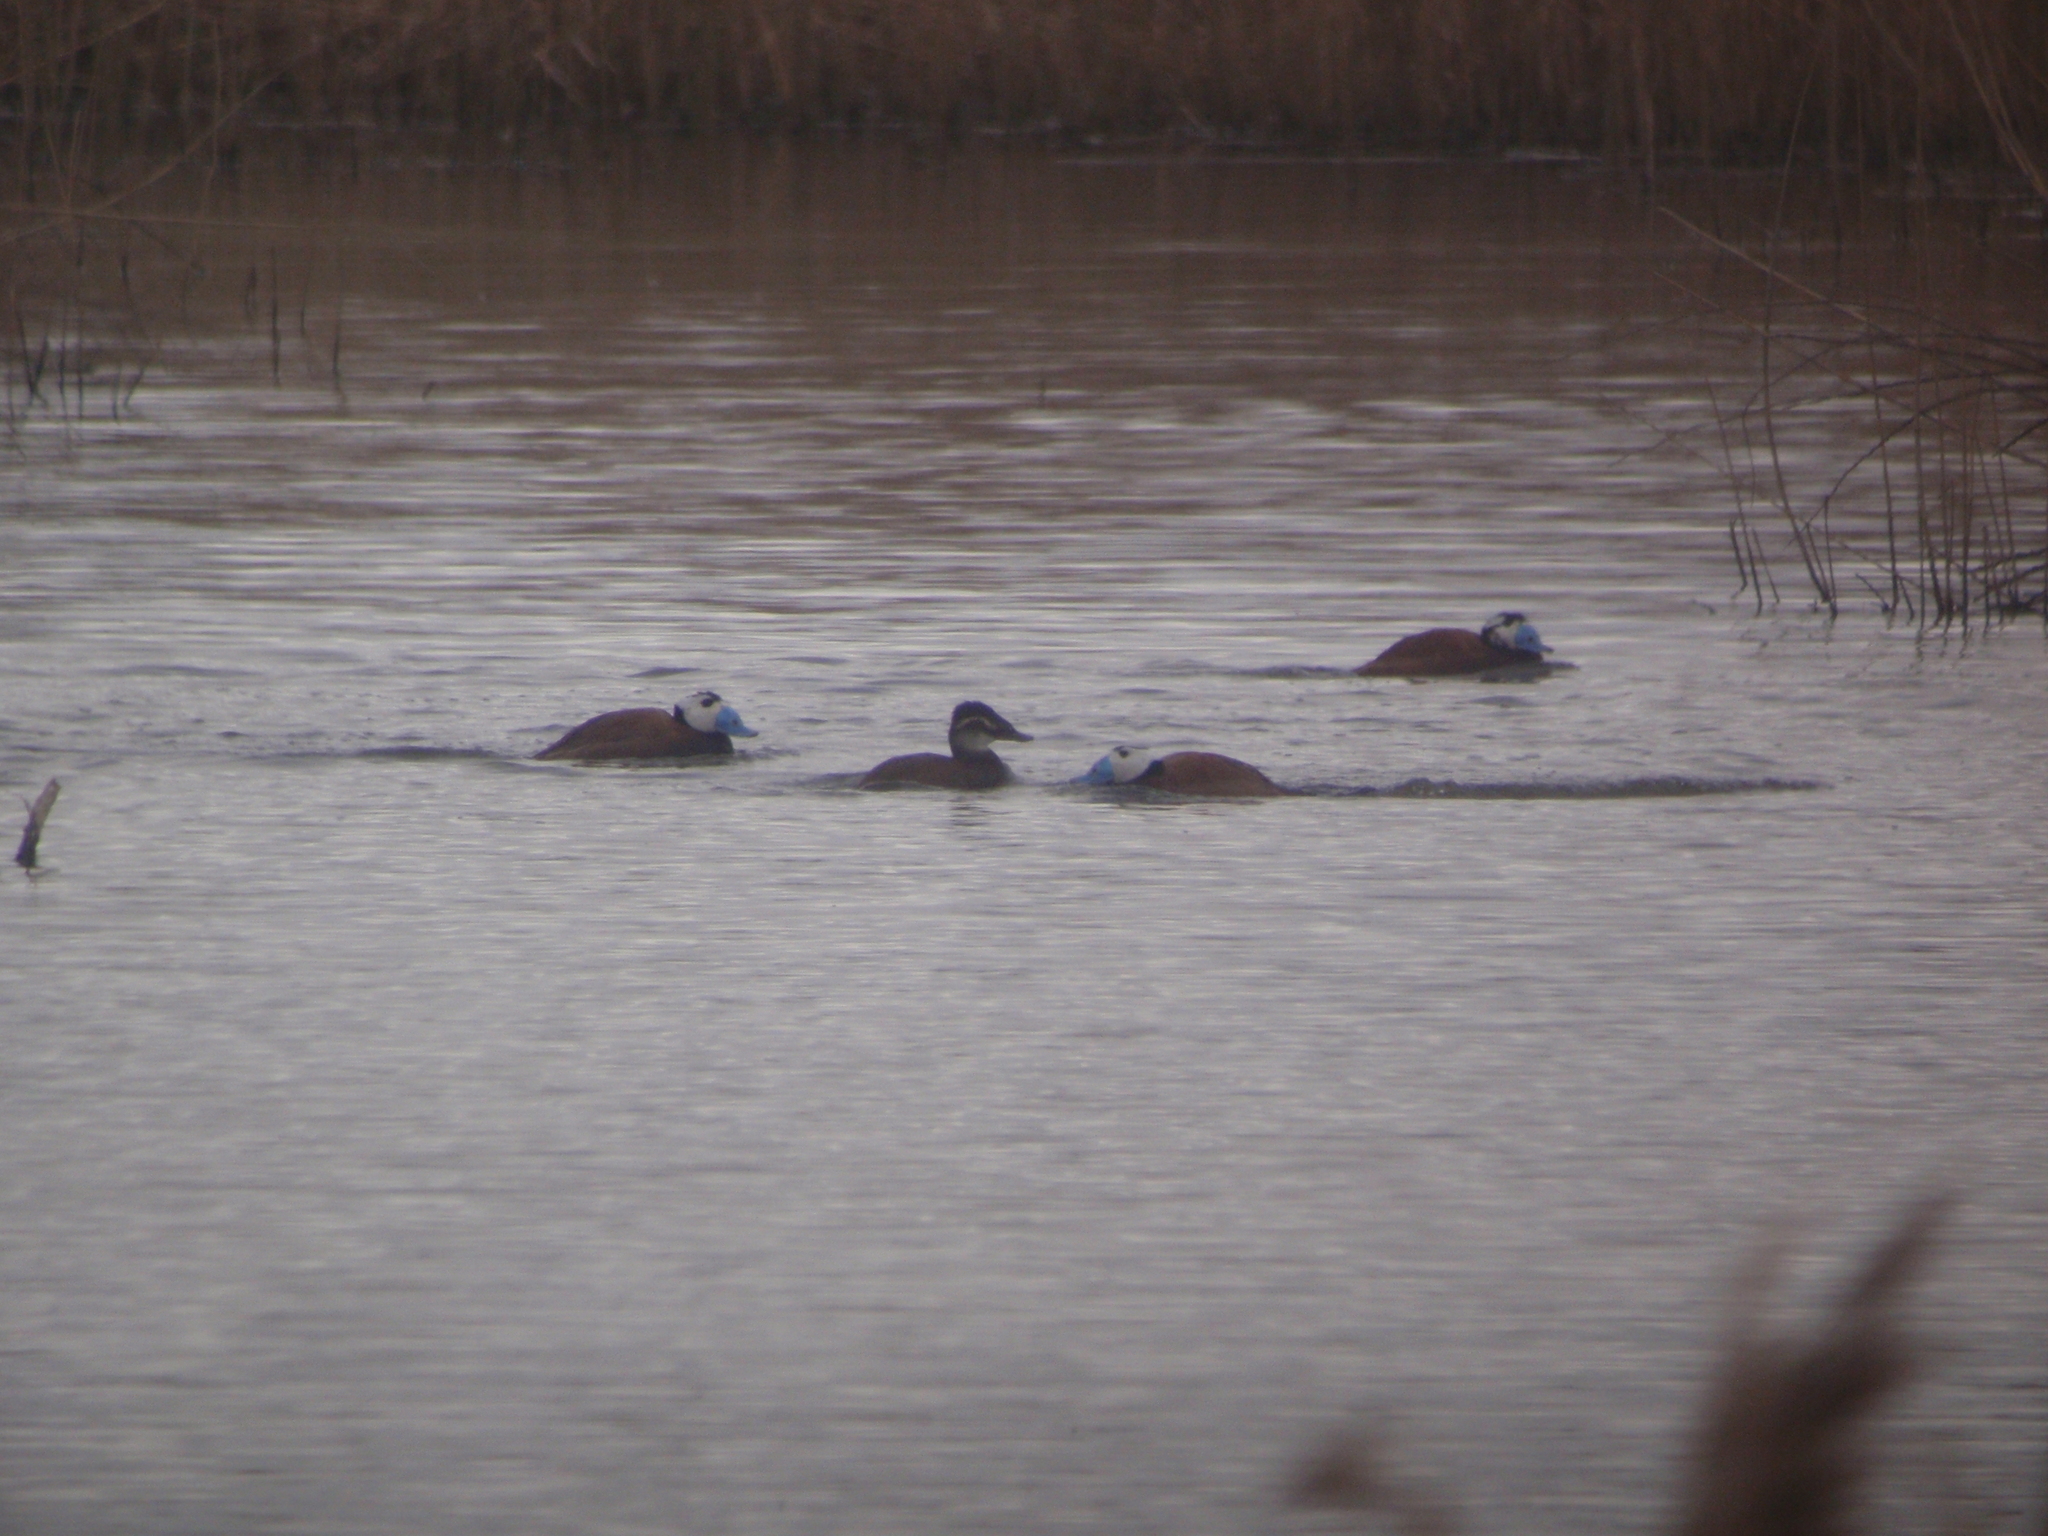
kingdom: Animalia
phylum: Chordata
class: Aves
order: Anseriformes
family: Anatidae
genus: Oxyura
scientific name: Oxyura leucocephala
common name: White-headed duck
